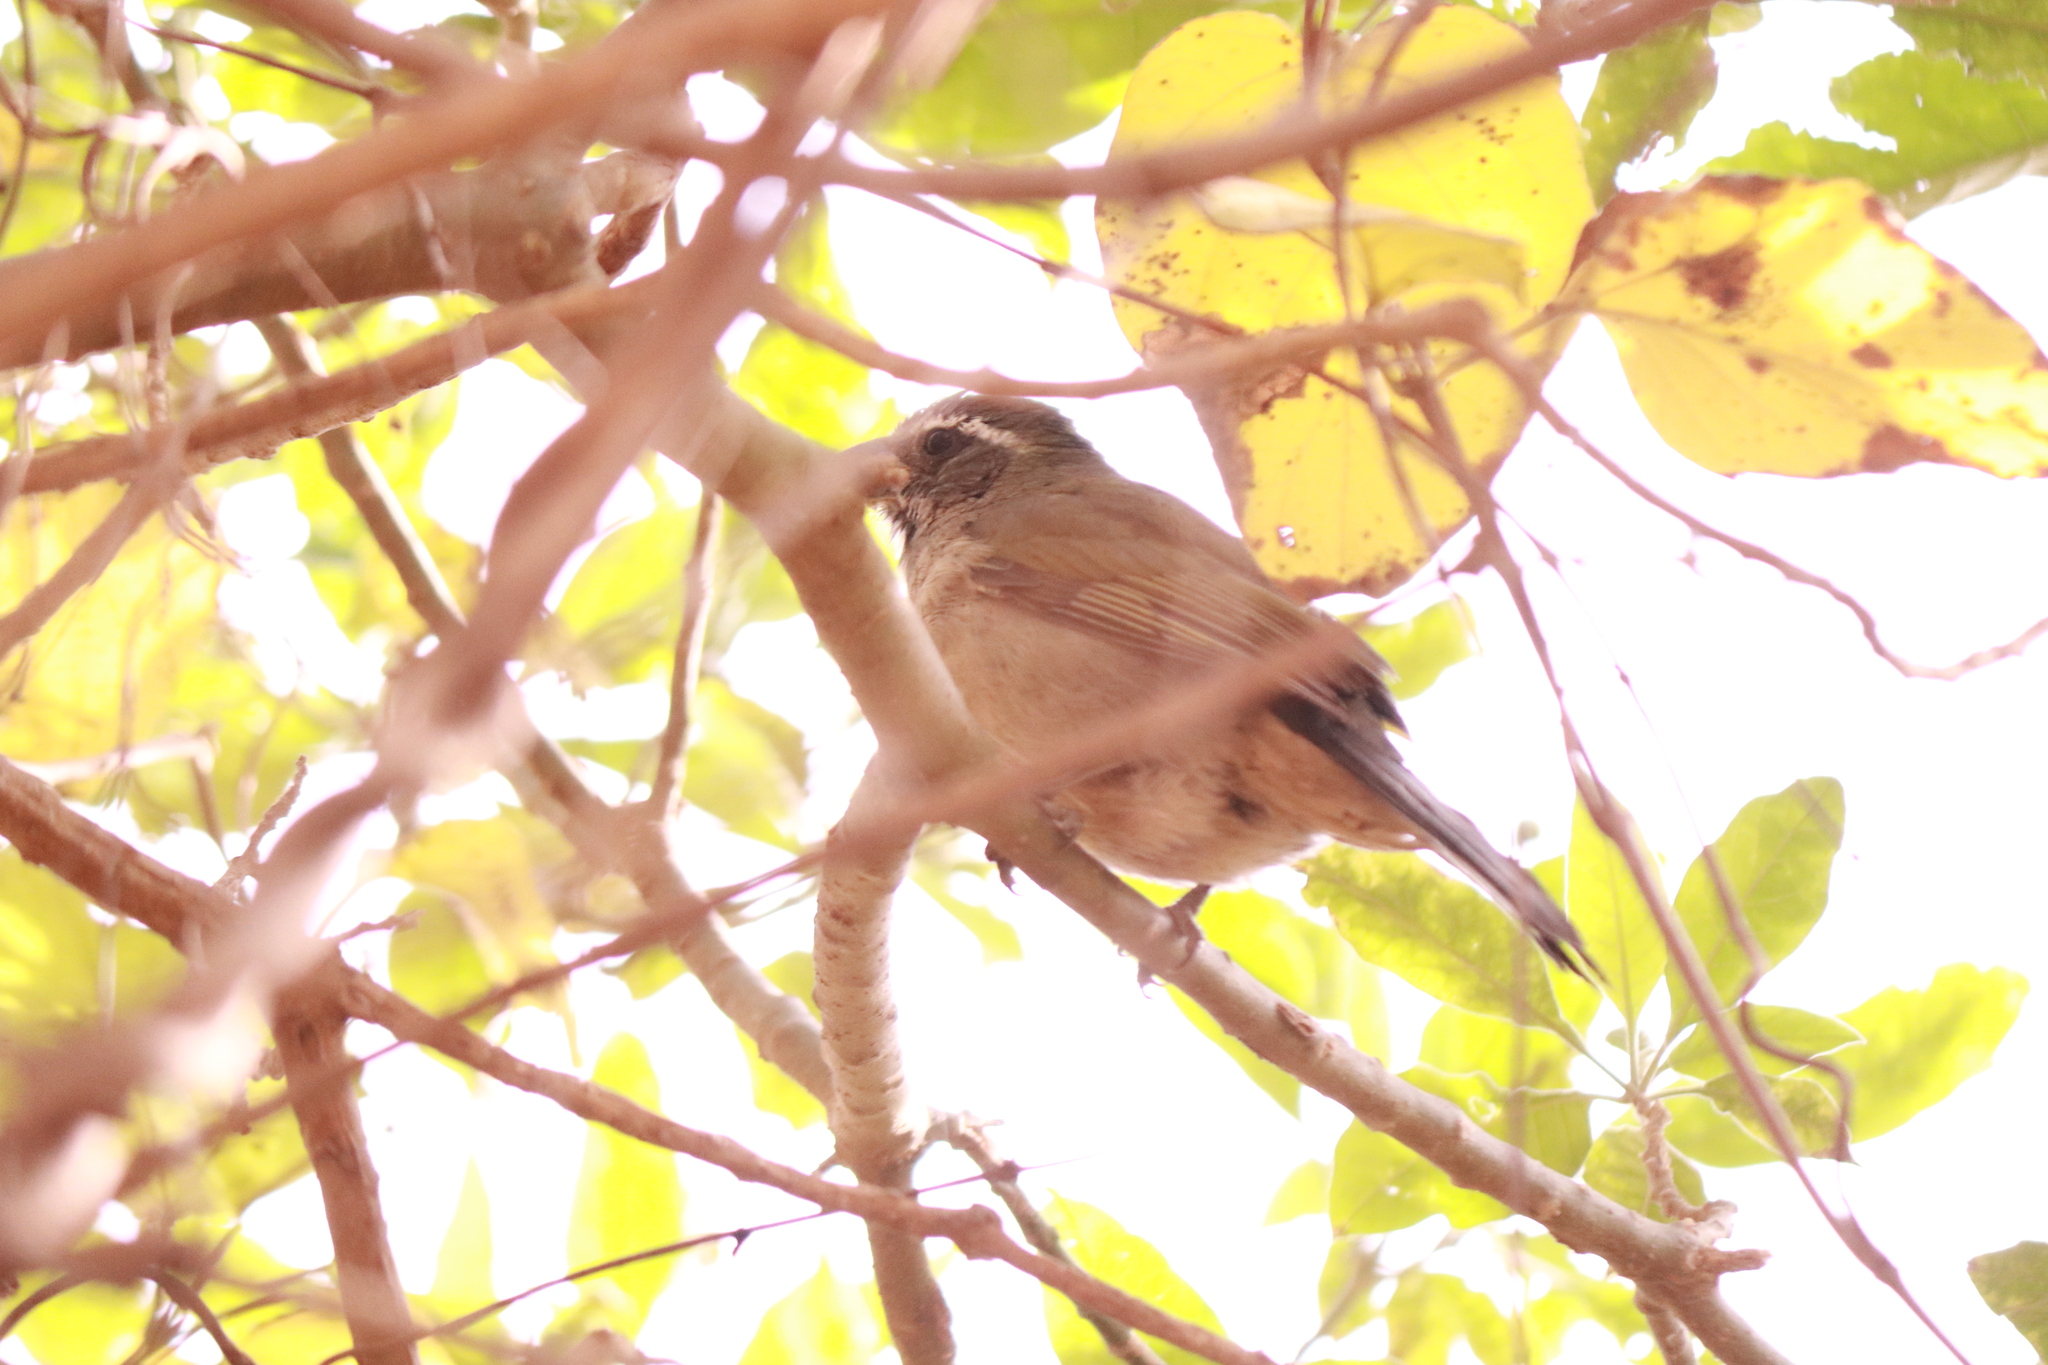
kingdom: Animalia
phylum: Chordata
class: Aves
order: Passeriformes
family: Thraupidae
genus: Saltator
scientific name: Saltator similis
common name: Green-winged saltator
